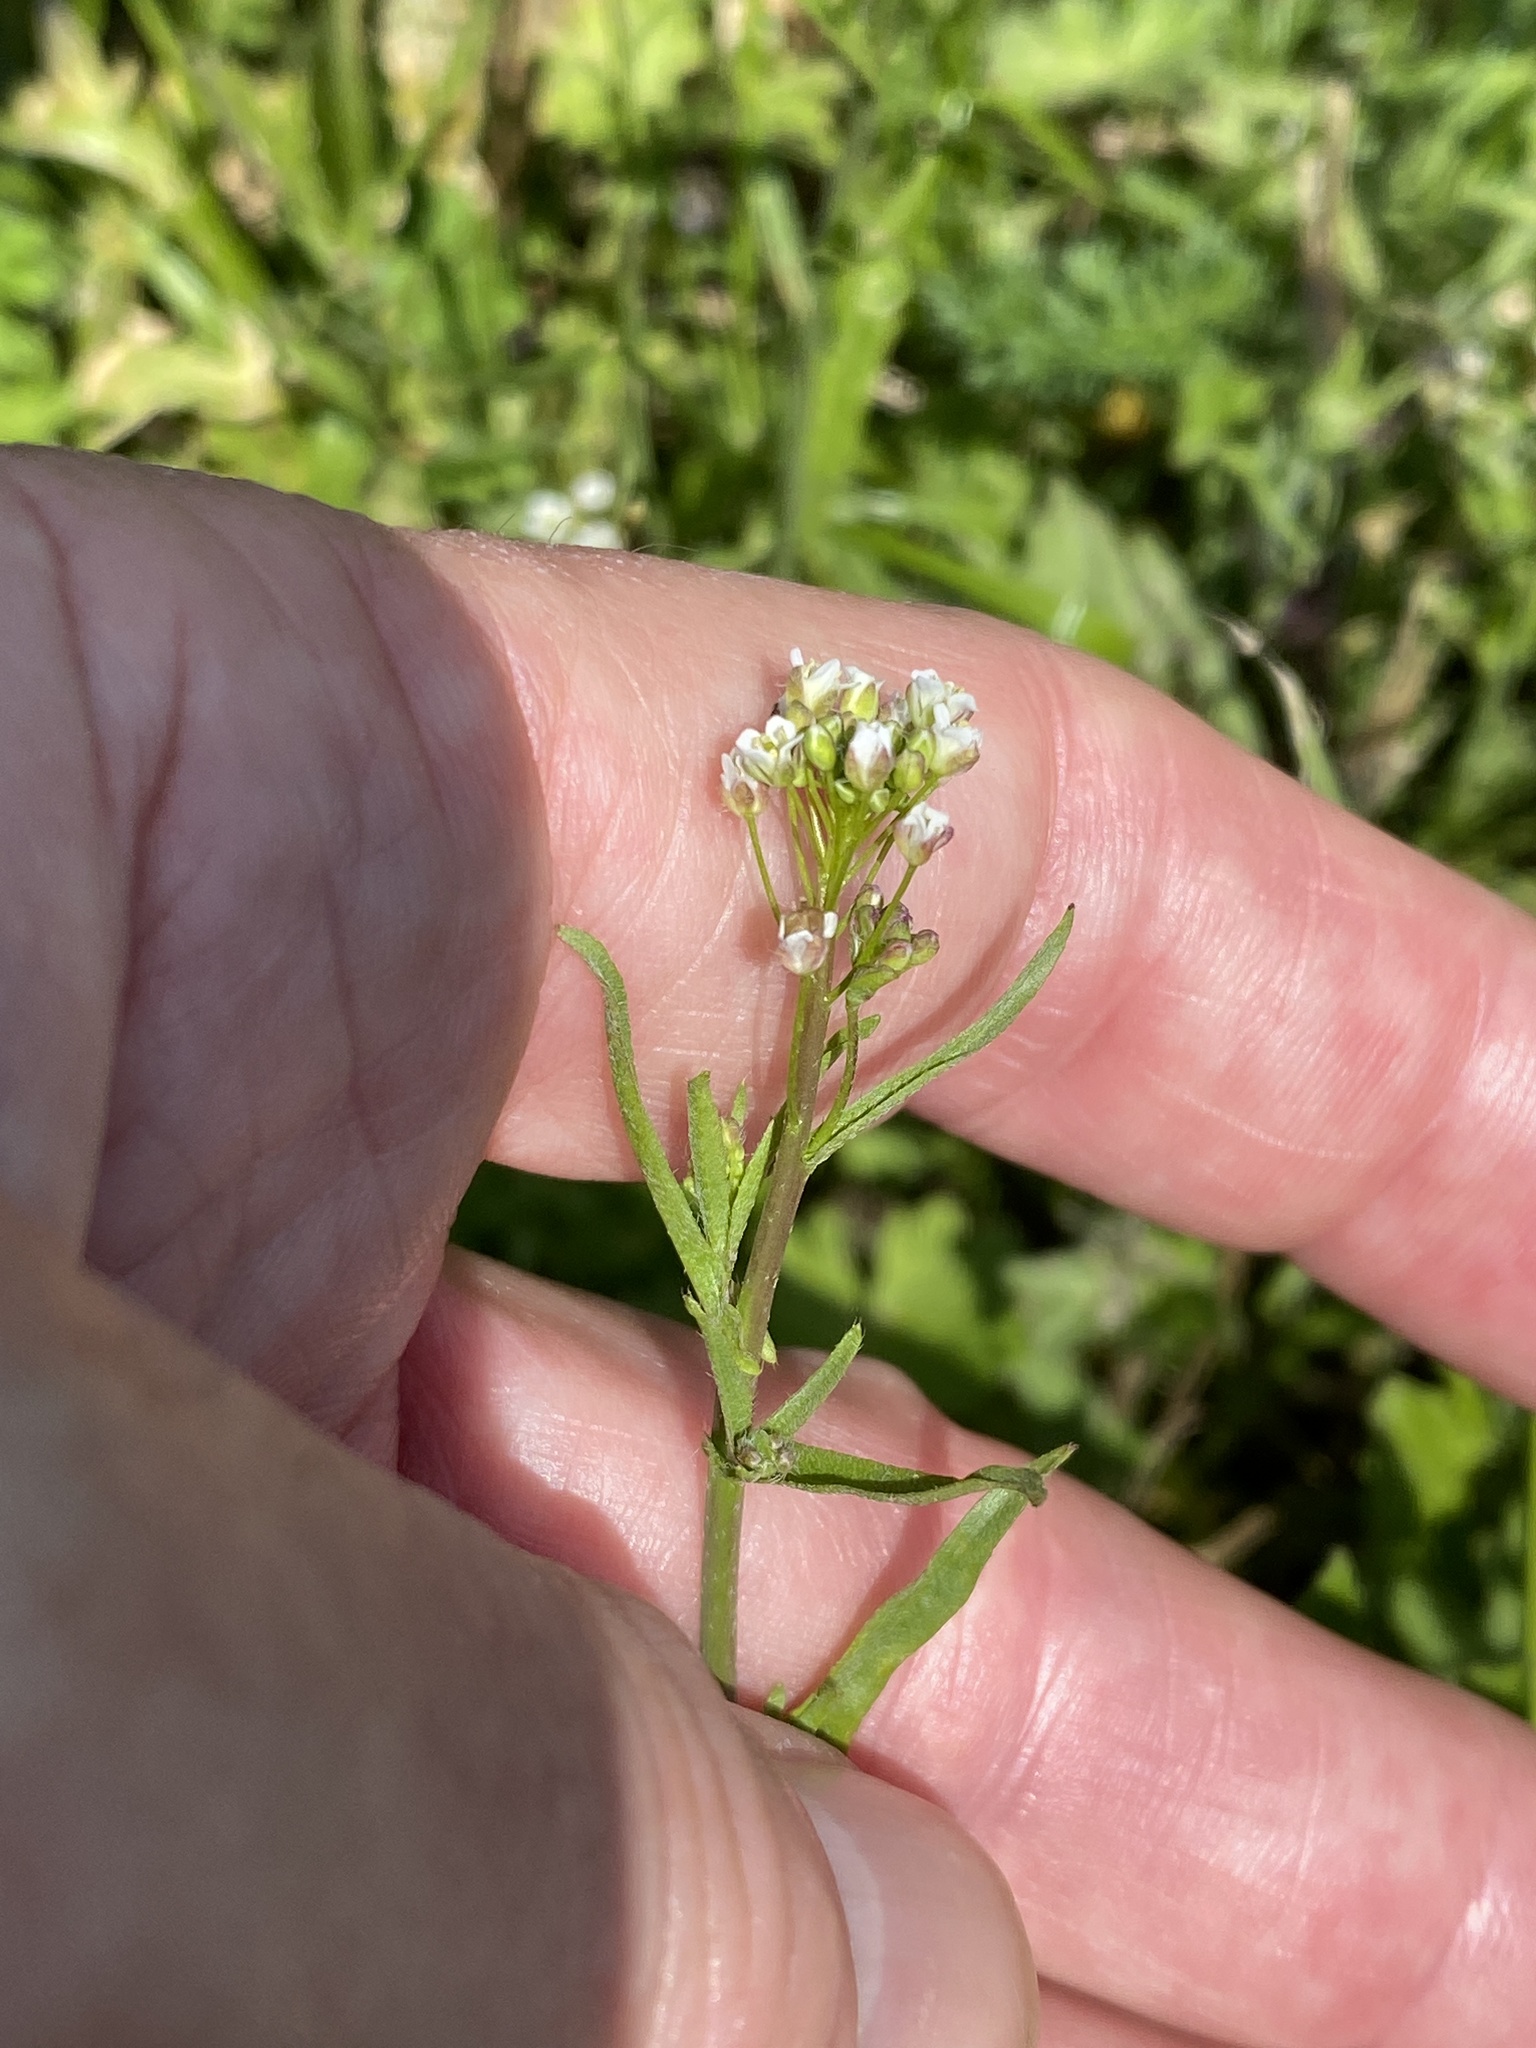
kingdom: Plantae
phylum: Tracheophyta
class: Magnoliopsida
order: Brassicales
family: Brassicaceae
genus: Capsella
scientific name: Capsella bursa-pastoris
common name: Shepherd's purse
